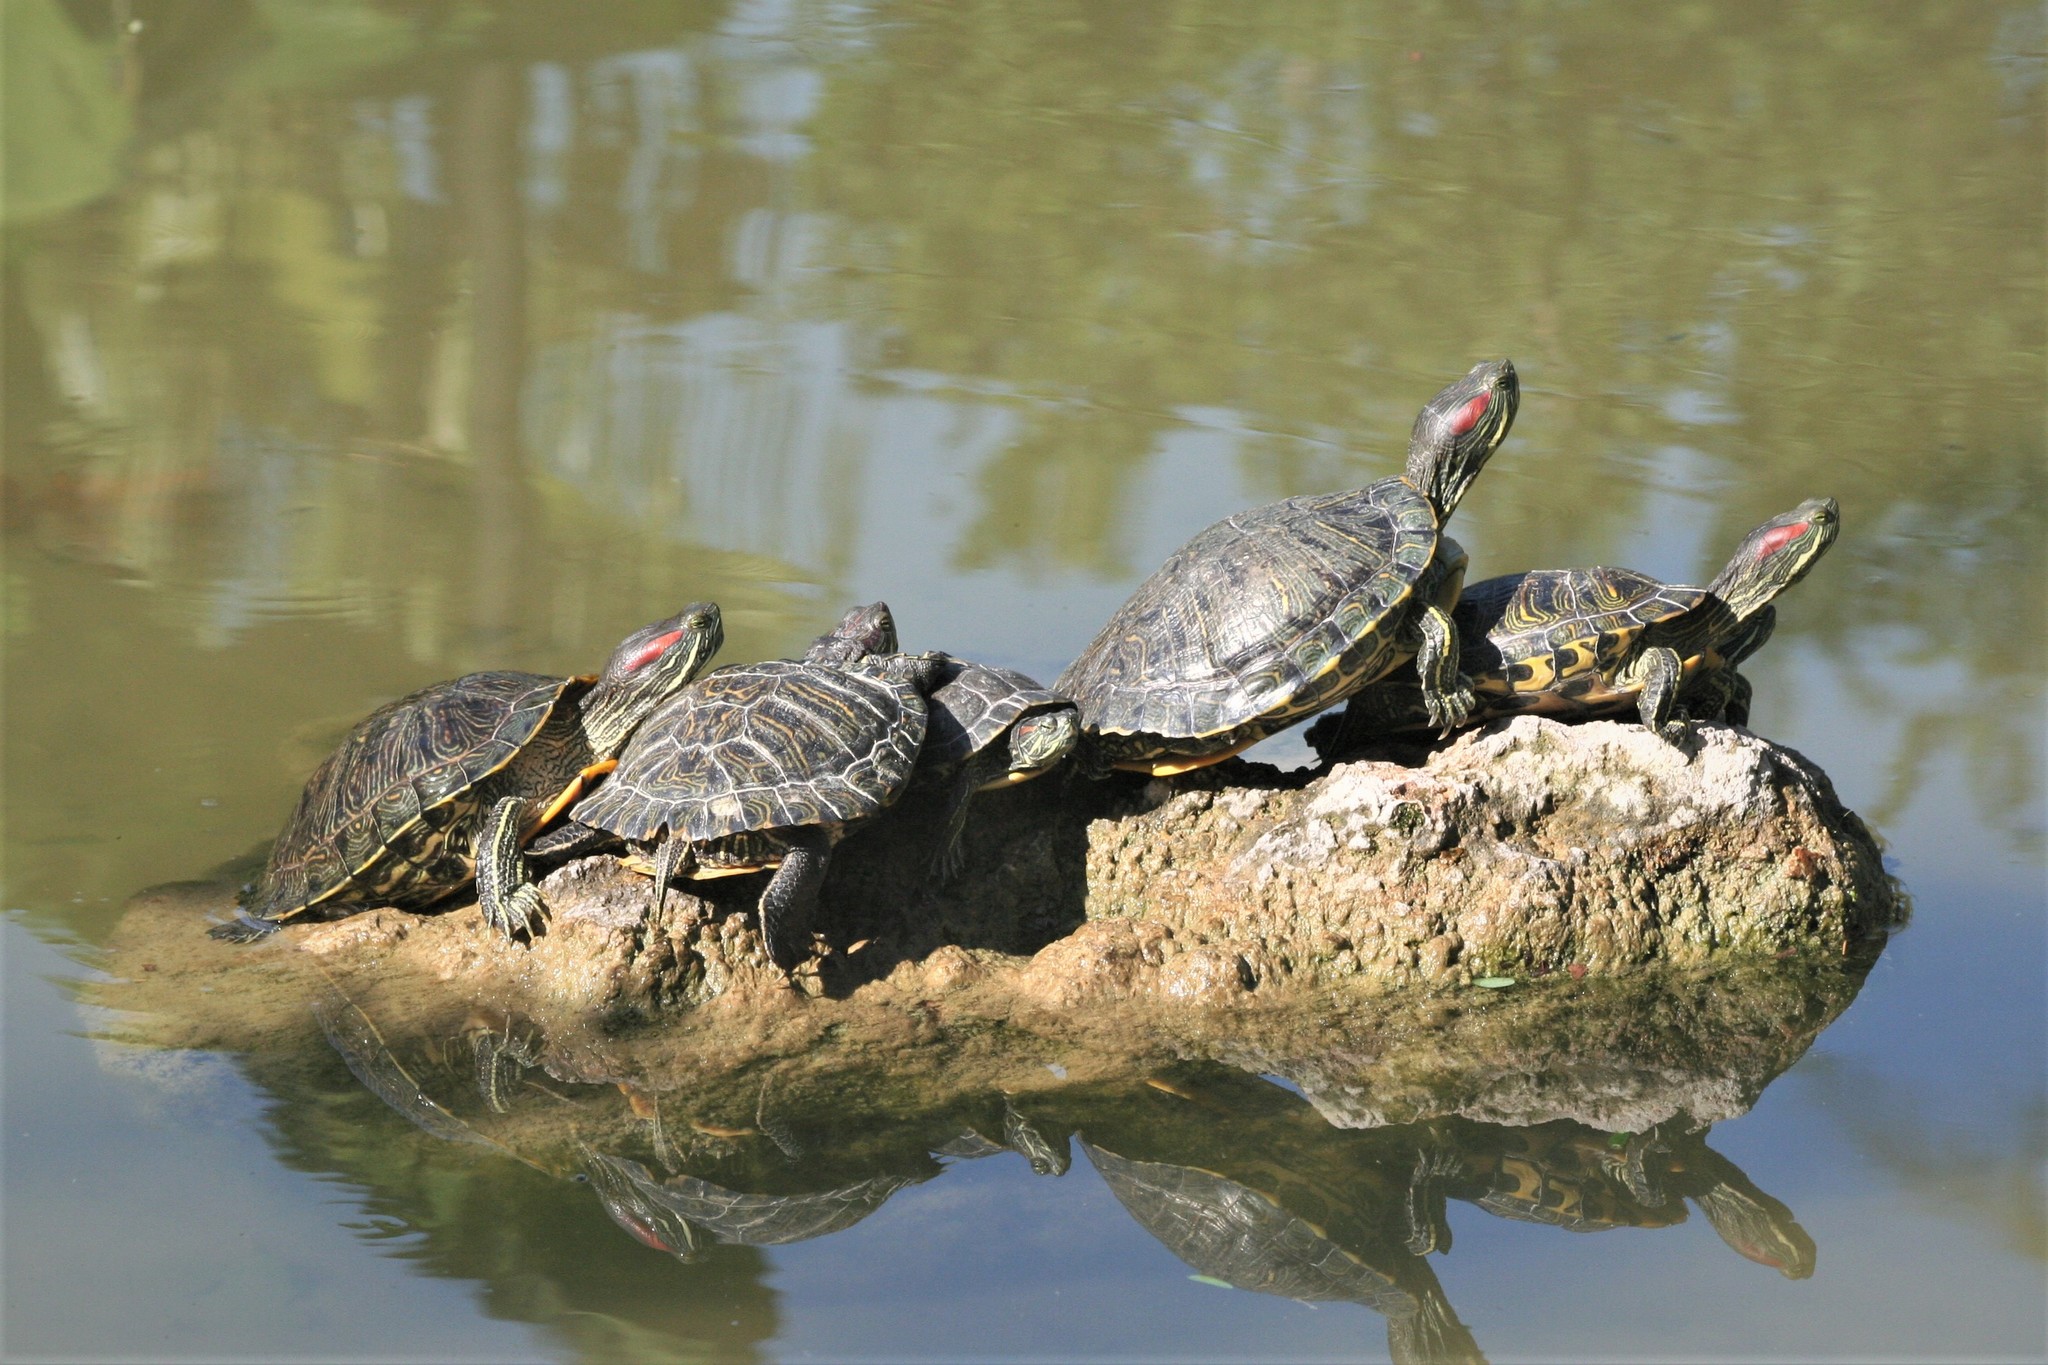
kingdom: Animalia
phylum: Chordata
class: Testudines
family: Emydidae
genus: Trachemys
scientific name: Trachemys scripta
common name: Slider
